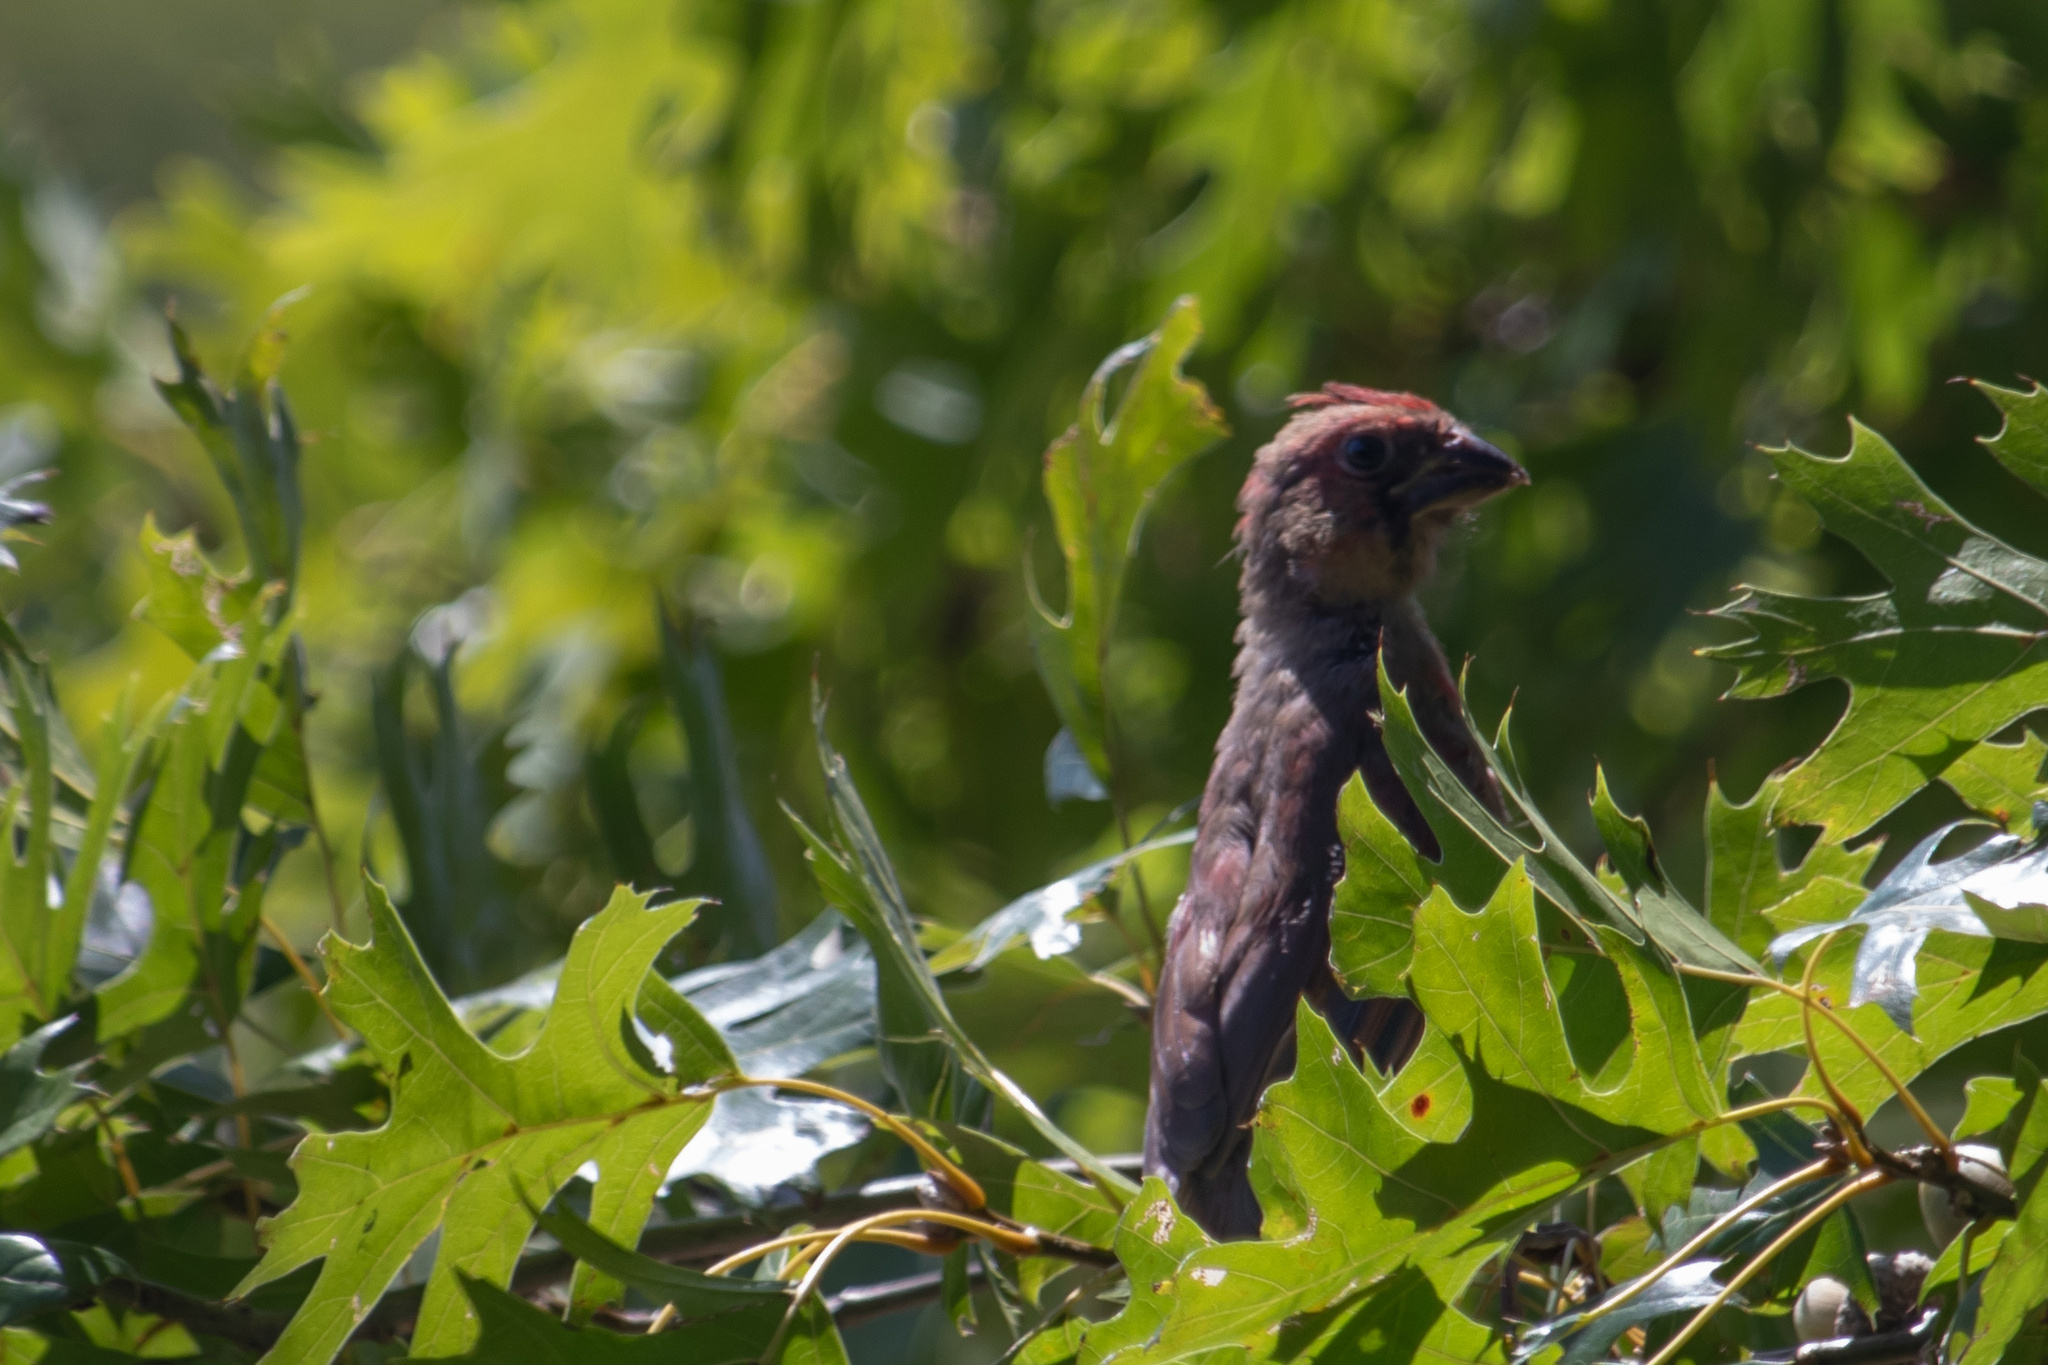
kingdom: Animalia
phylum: Chordata
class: Aves
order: Passeriformes
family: Cardinalidae
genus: Cardinalis
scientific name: Cardinalis cardinalis
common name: Northern cardinal
